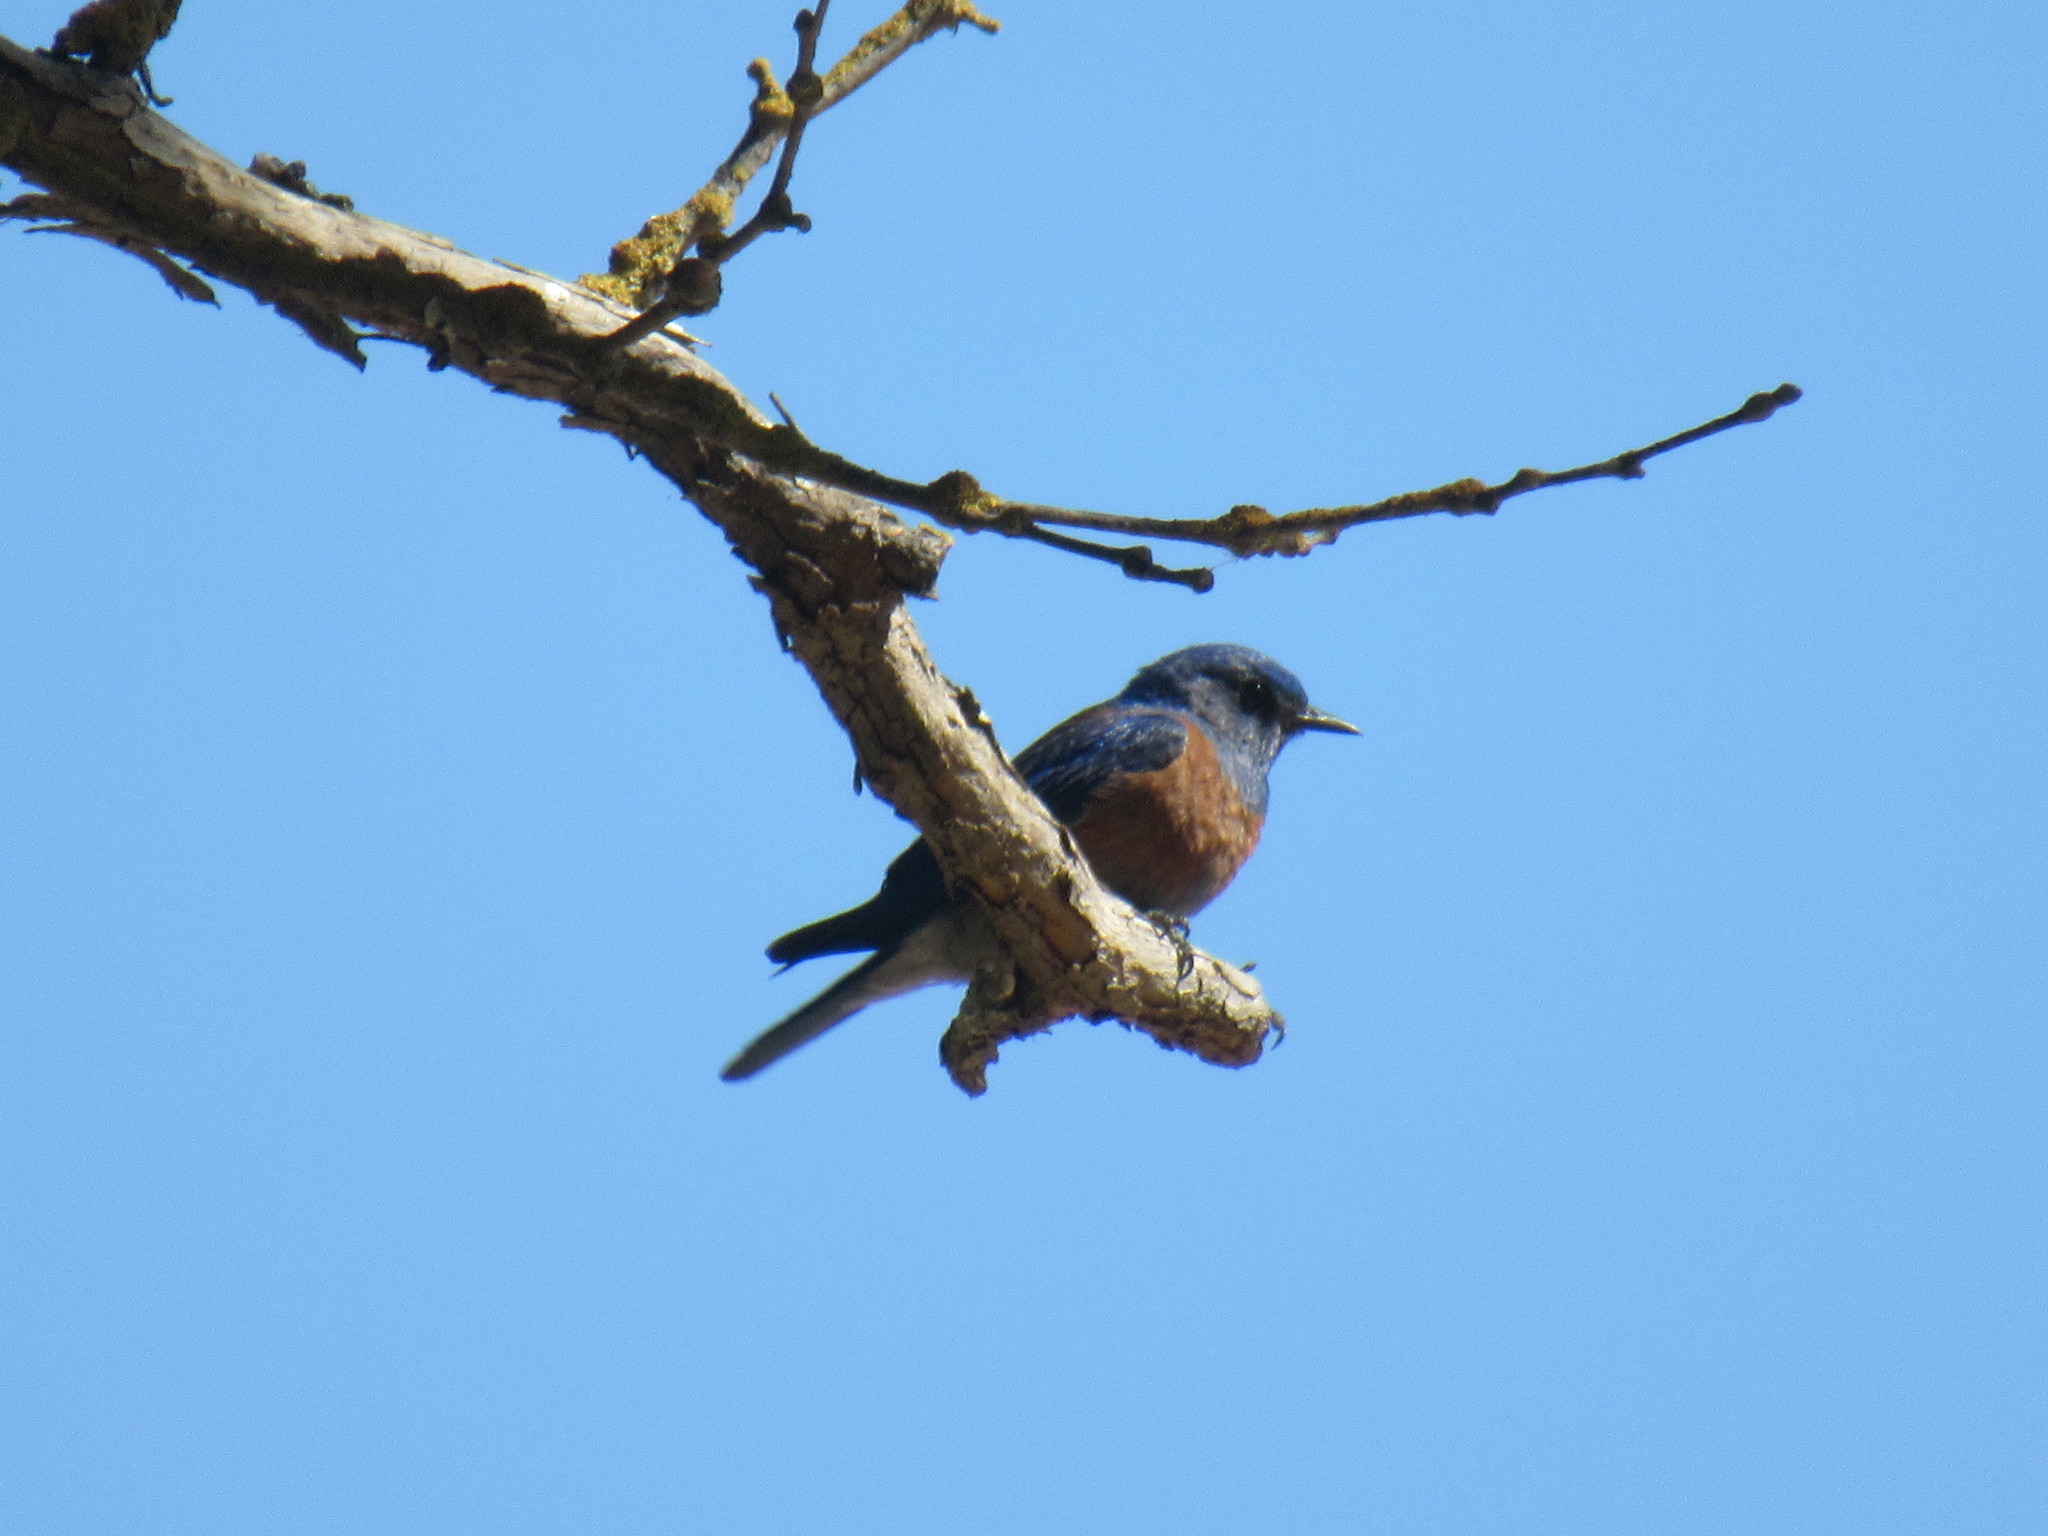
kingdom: Animalia
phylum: Chordata
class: Aves
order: Passeriformes
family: Turdidae
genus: Sialia
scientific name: Sialia mexicana
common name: Western bluebird
